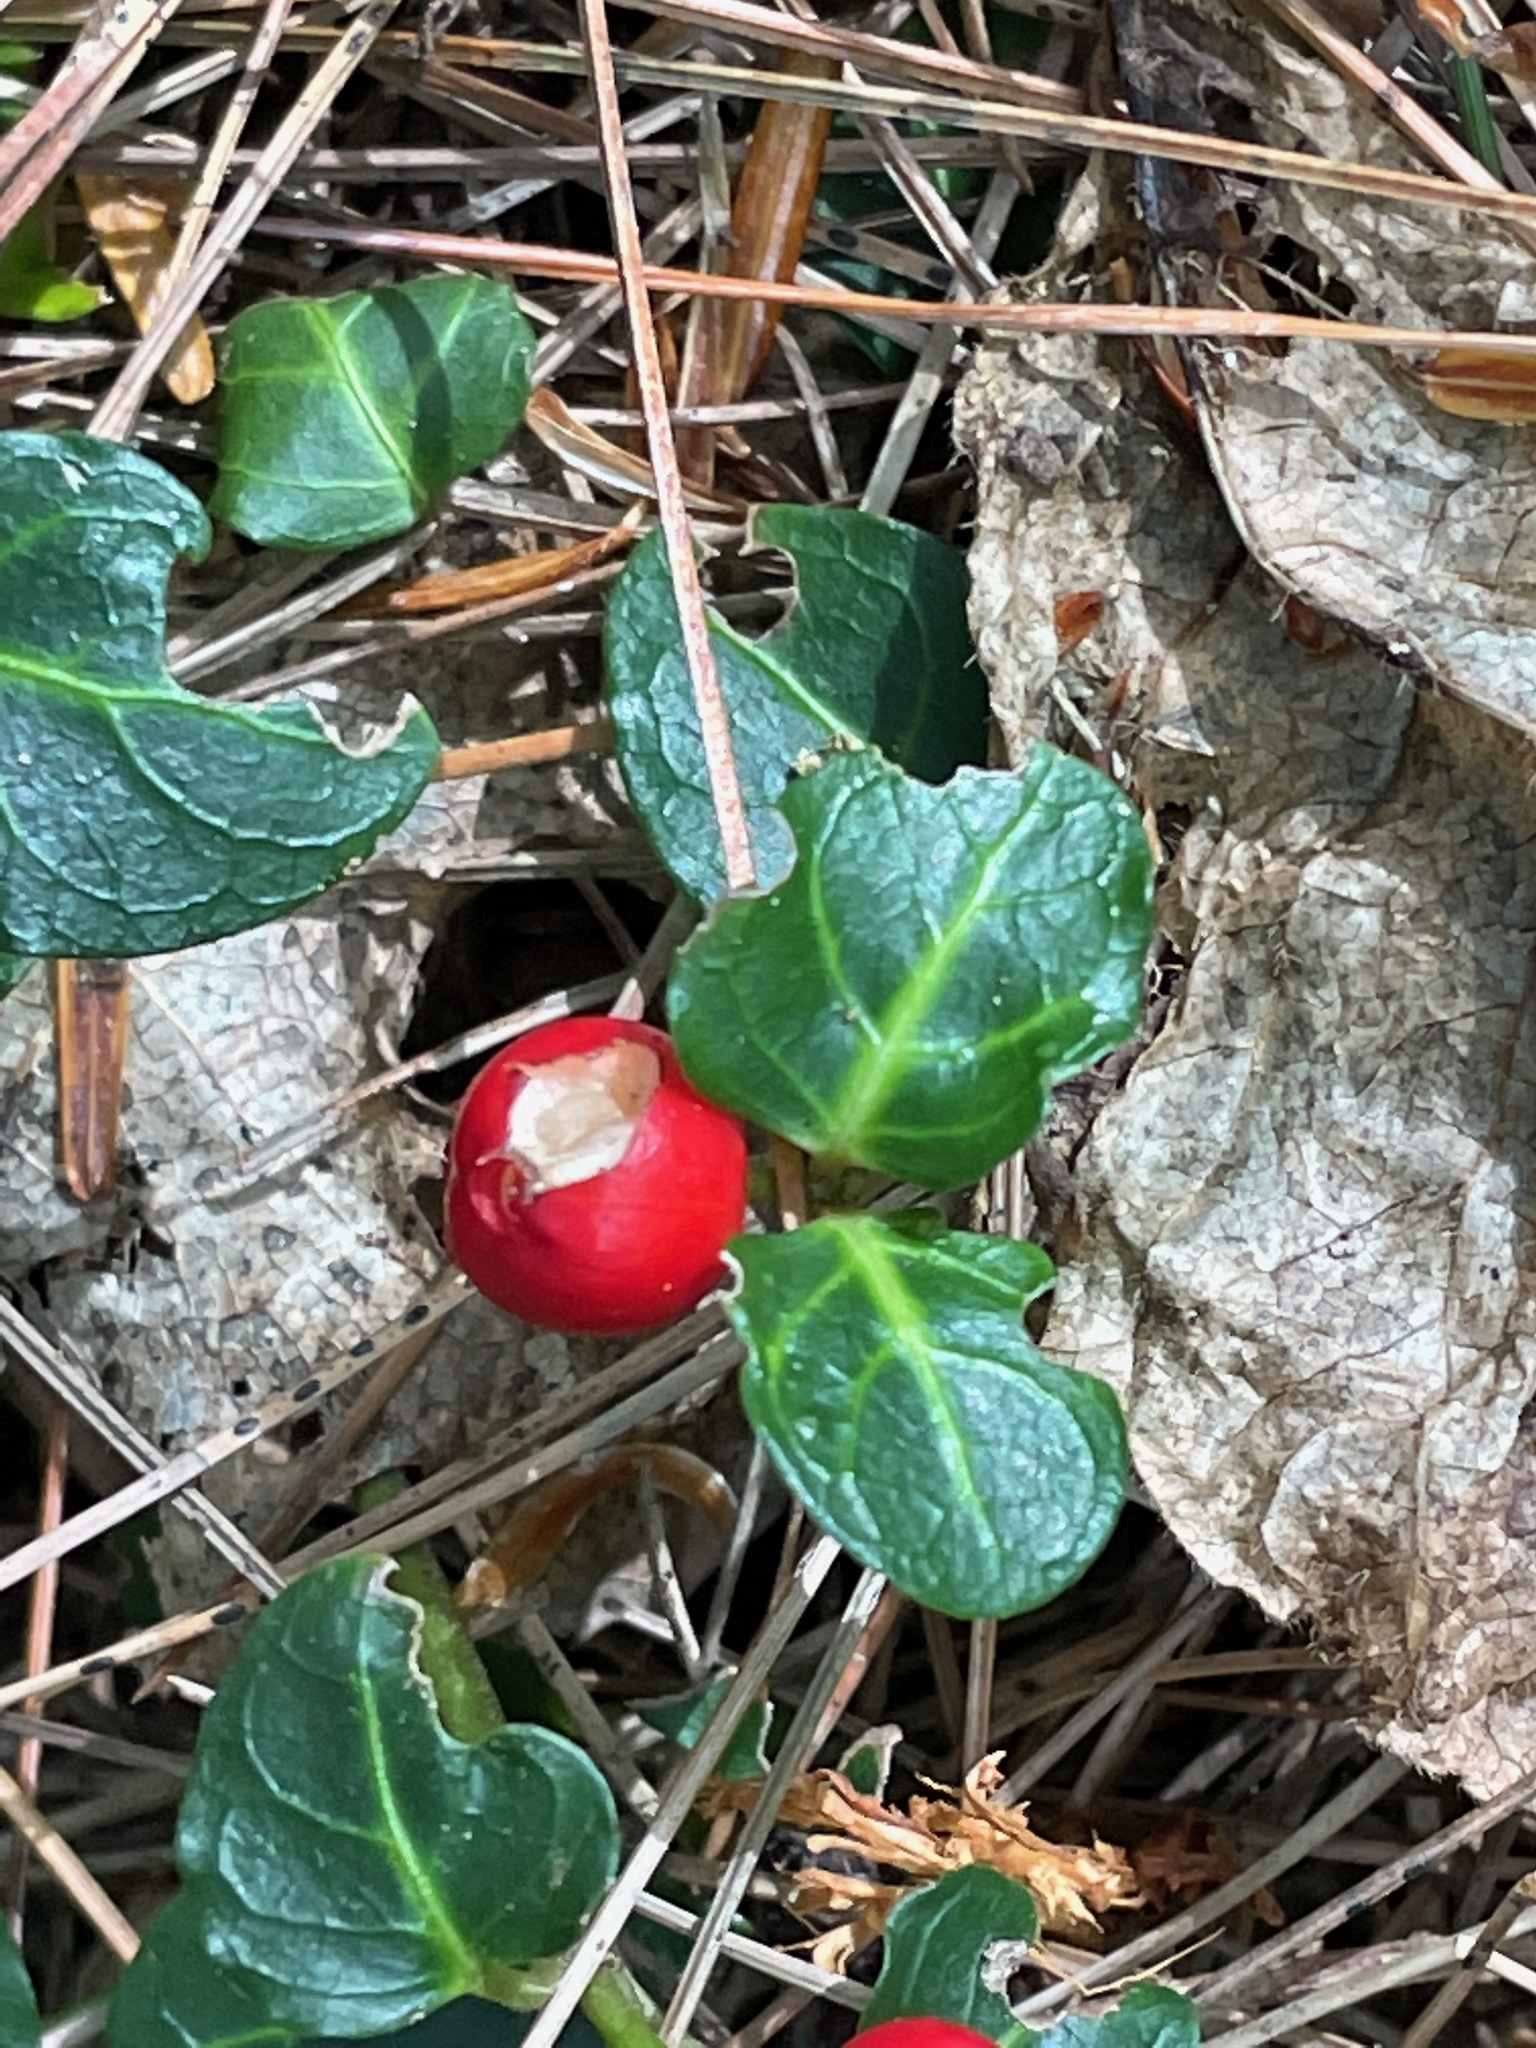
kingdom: Plantae
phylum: Tracheophyta
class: Magnoliopsida
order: Gentianales
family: Rubiaceae
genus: Mitchella
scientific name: Mitchella repens
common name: Partridge-berry
